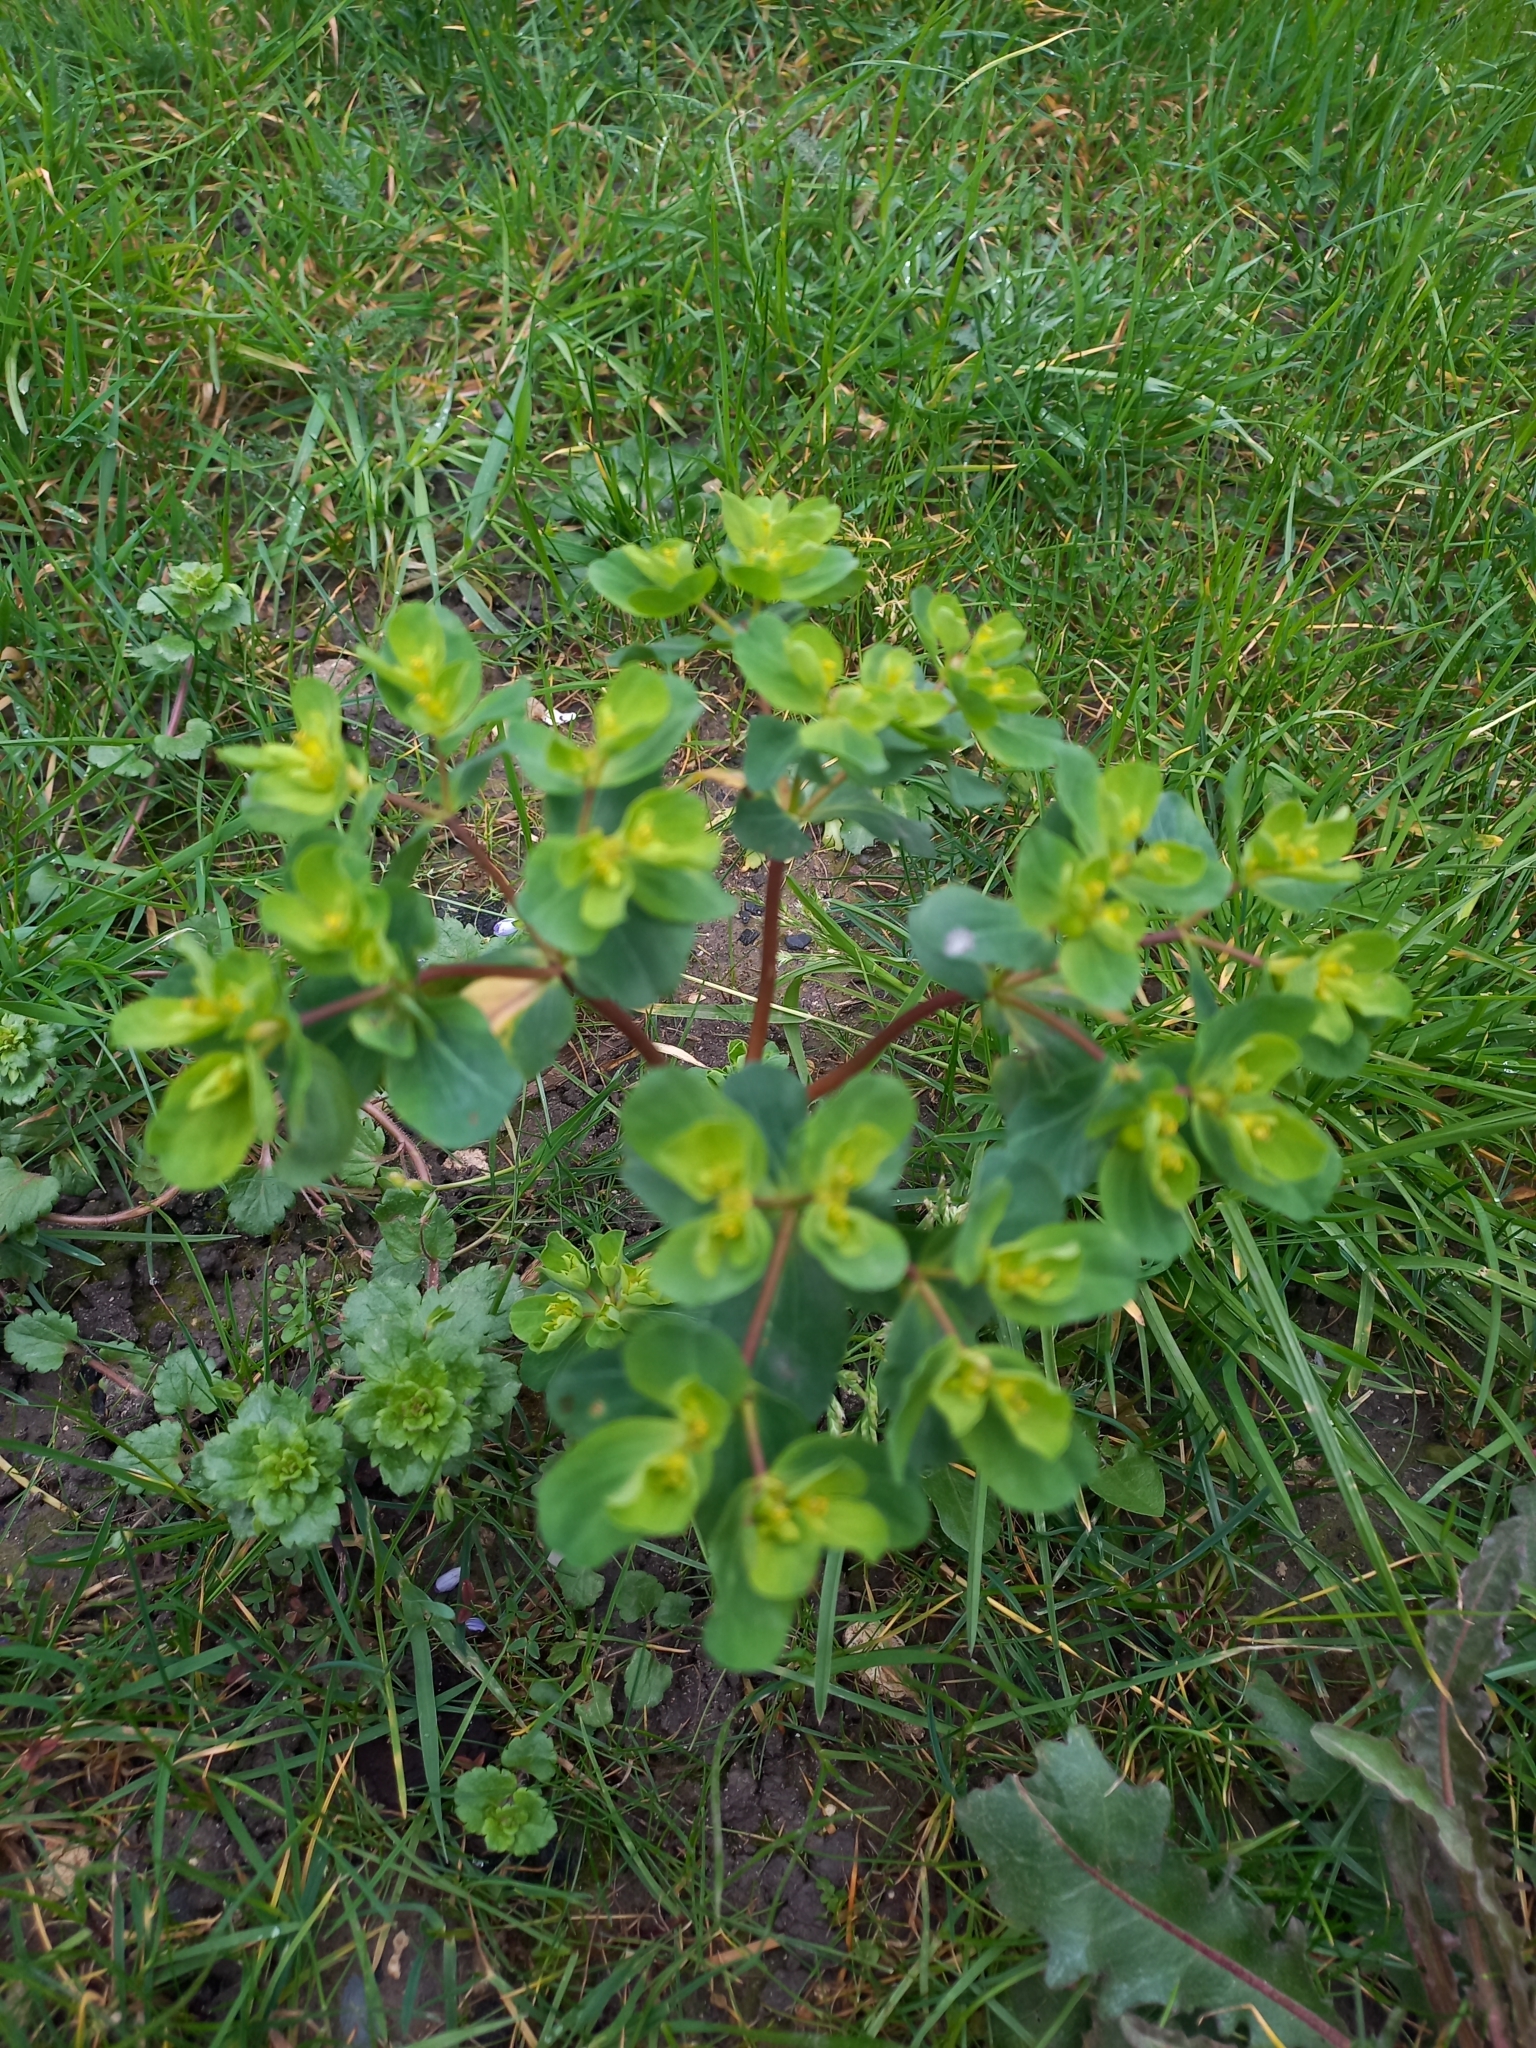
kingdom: Plantae
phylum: Tracheophyta
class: Magnoliopsida
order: Malpighiales
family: Euphorbiaceae
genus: Euphorbia
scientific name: Euphorbia helioscopia
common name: Sun spurge
